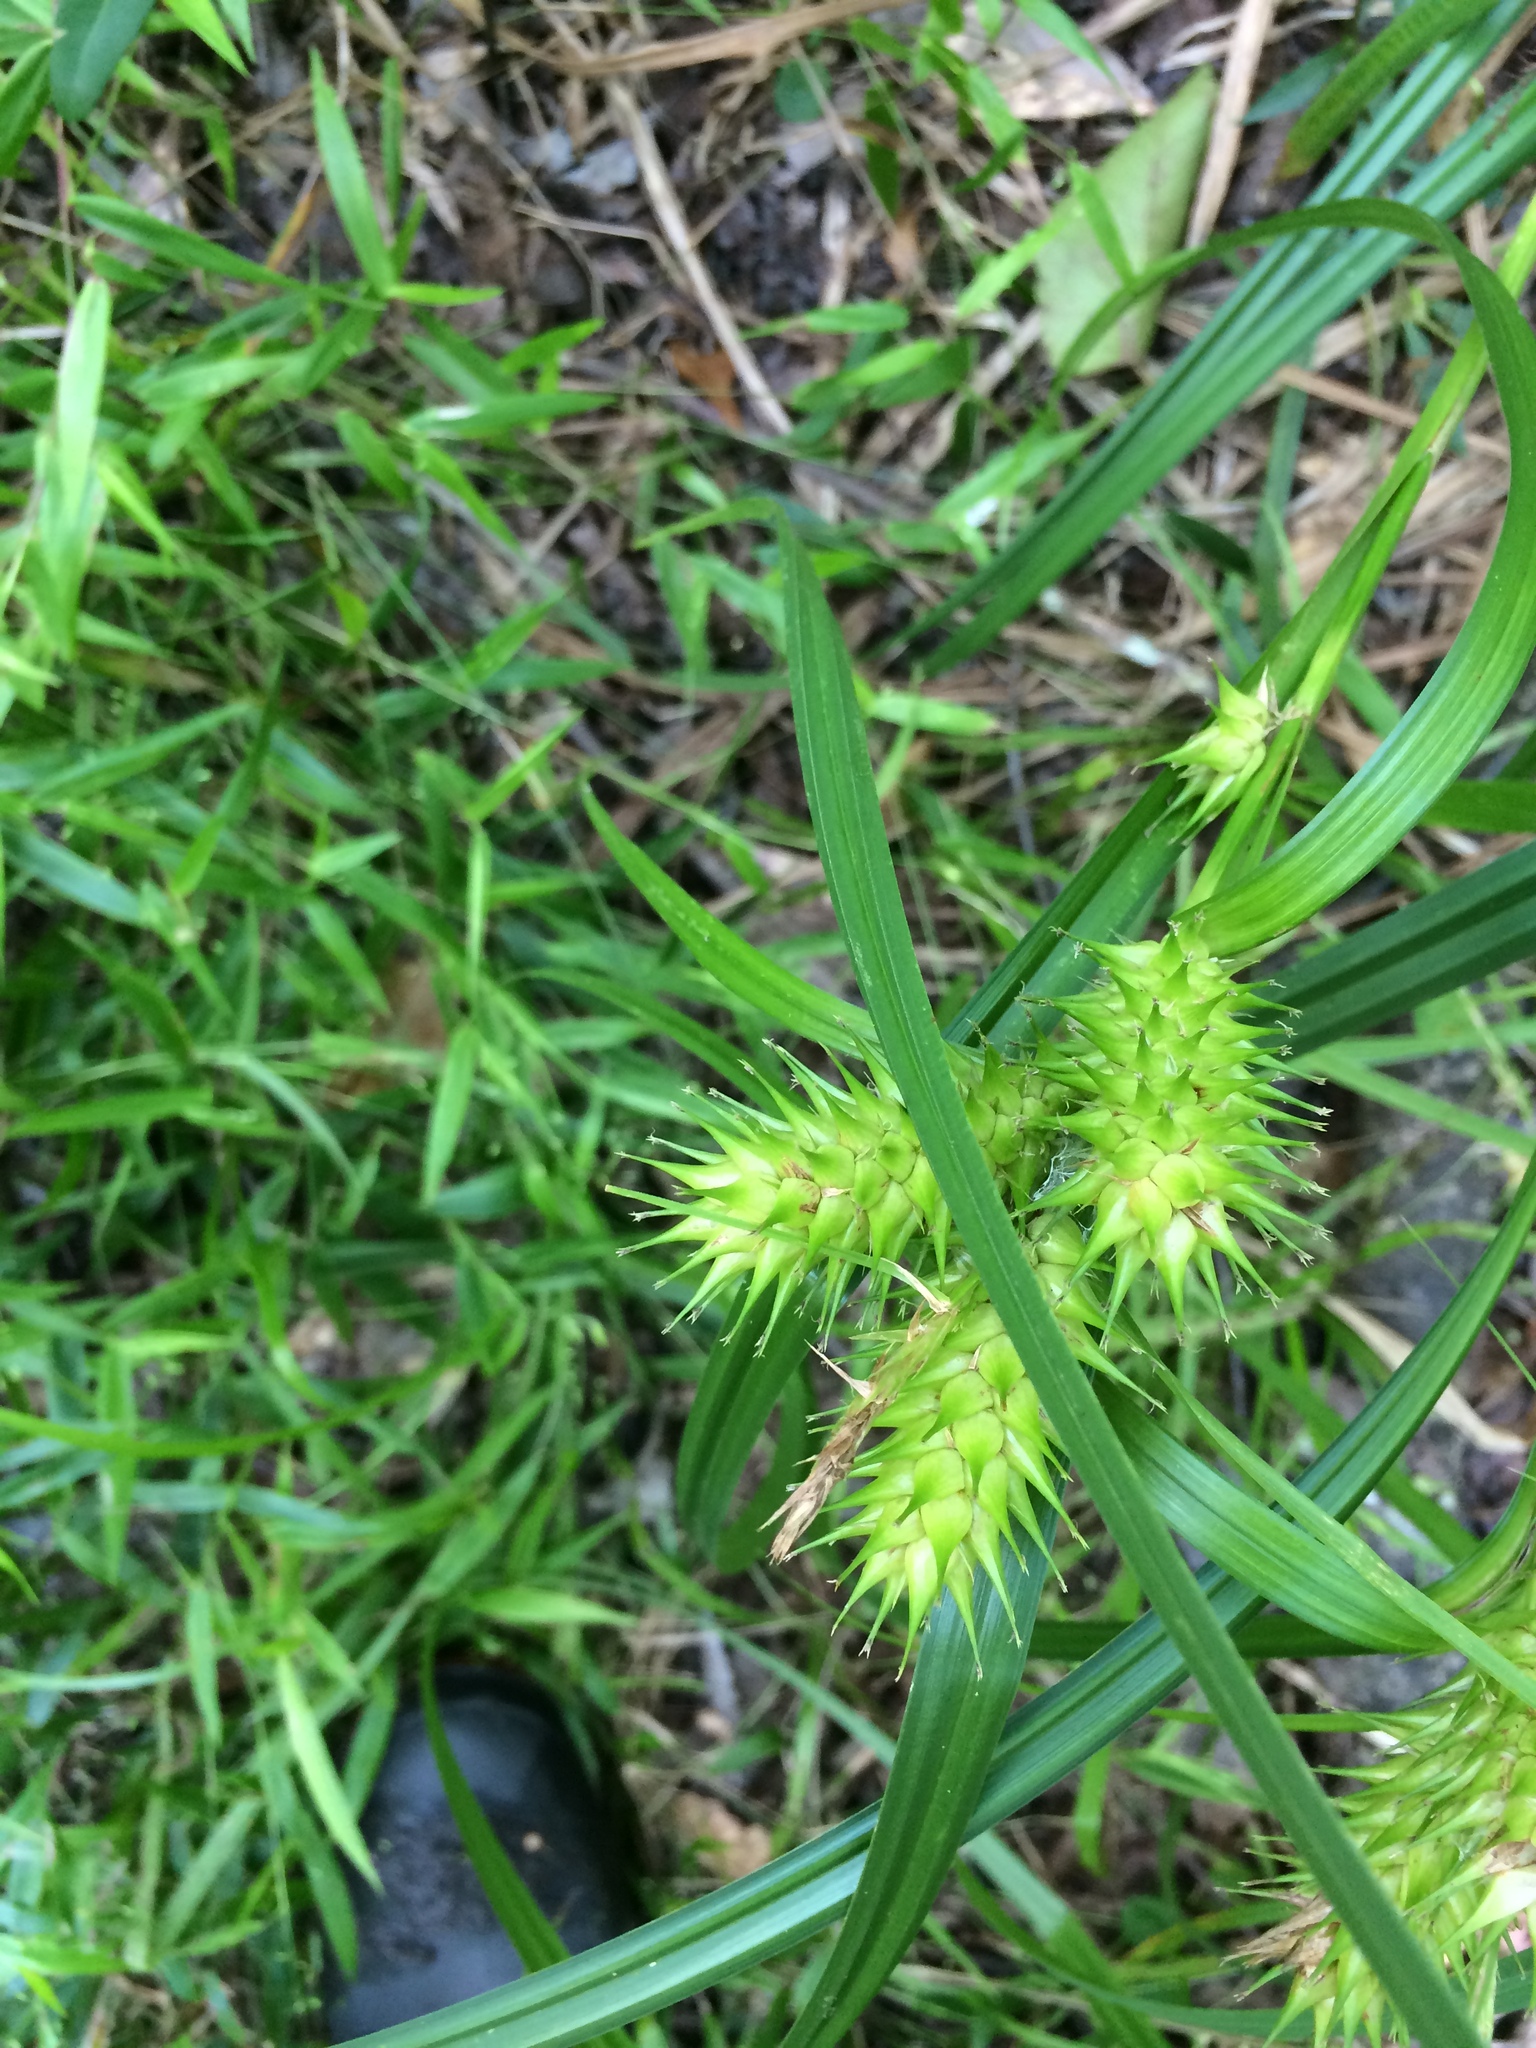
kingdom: Plantae
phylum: Tracheophyta
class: Liliopsida
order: Poales
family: Cyperaceae
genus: Carex
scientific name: Carex lupulina
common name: Hop sedge
